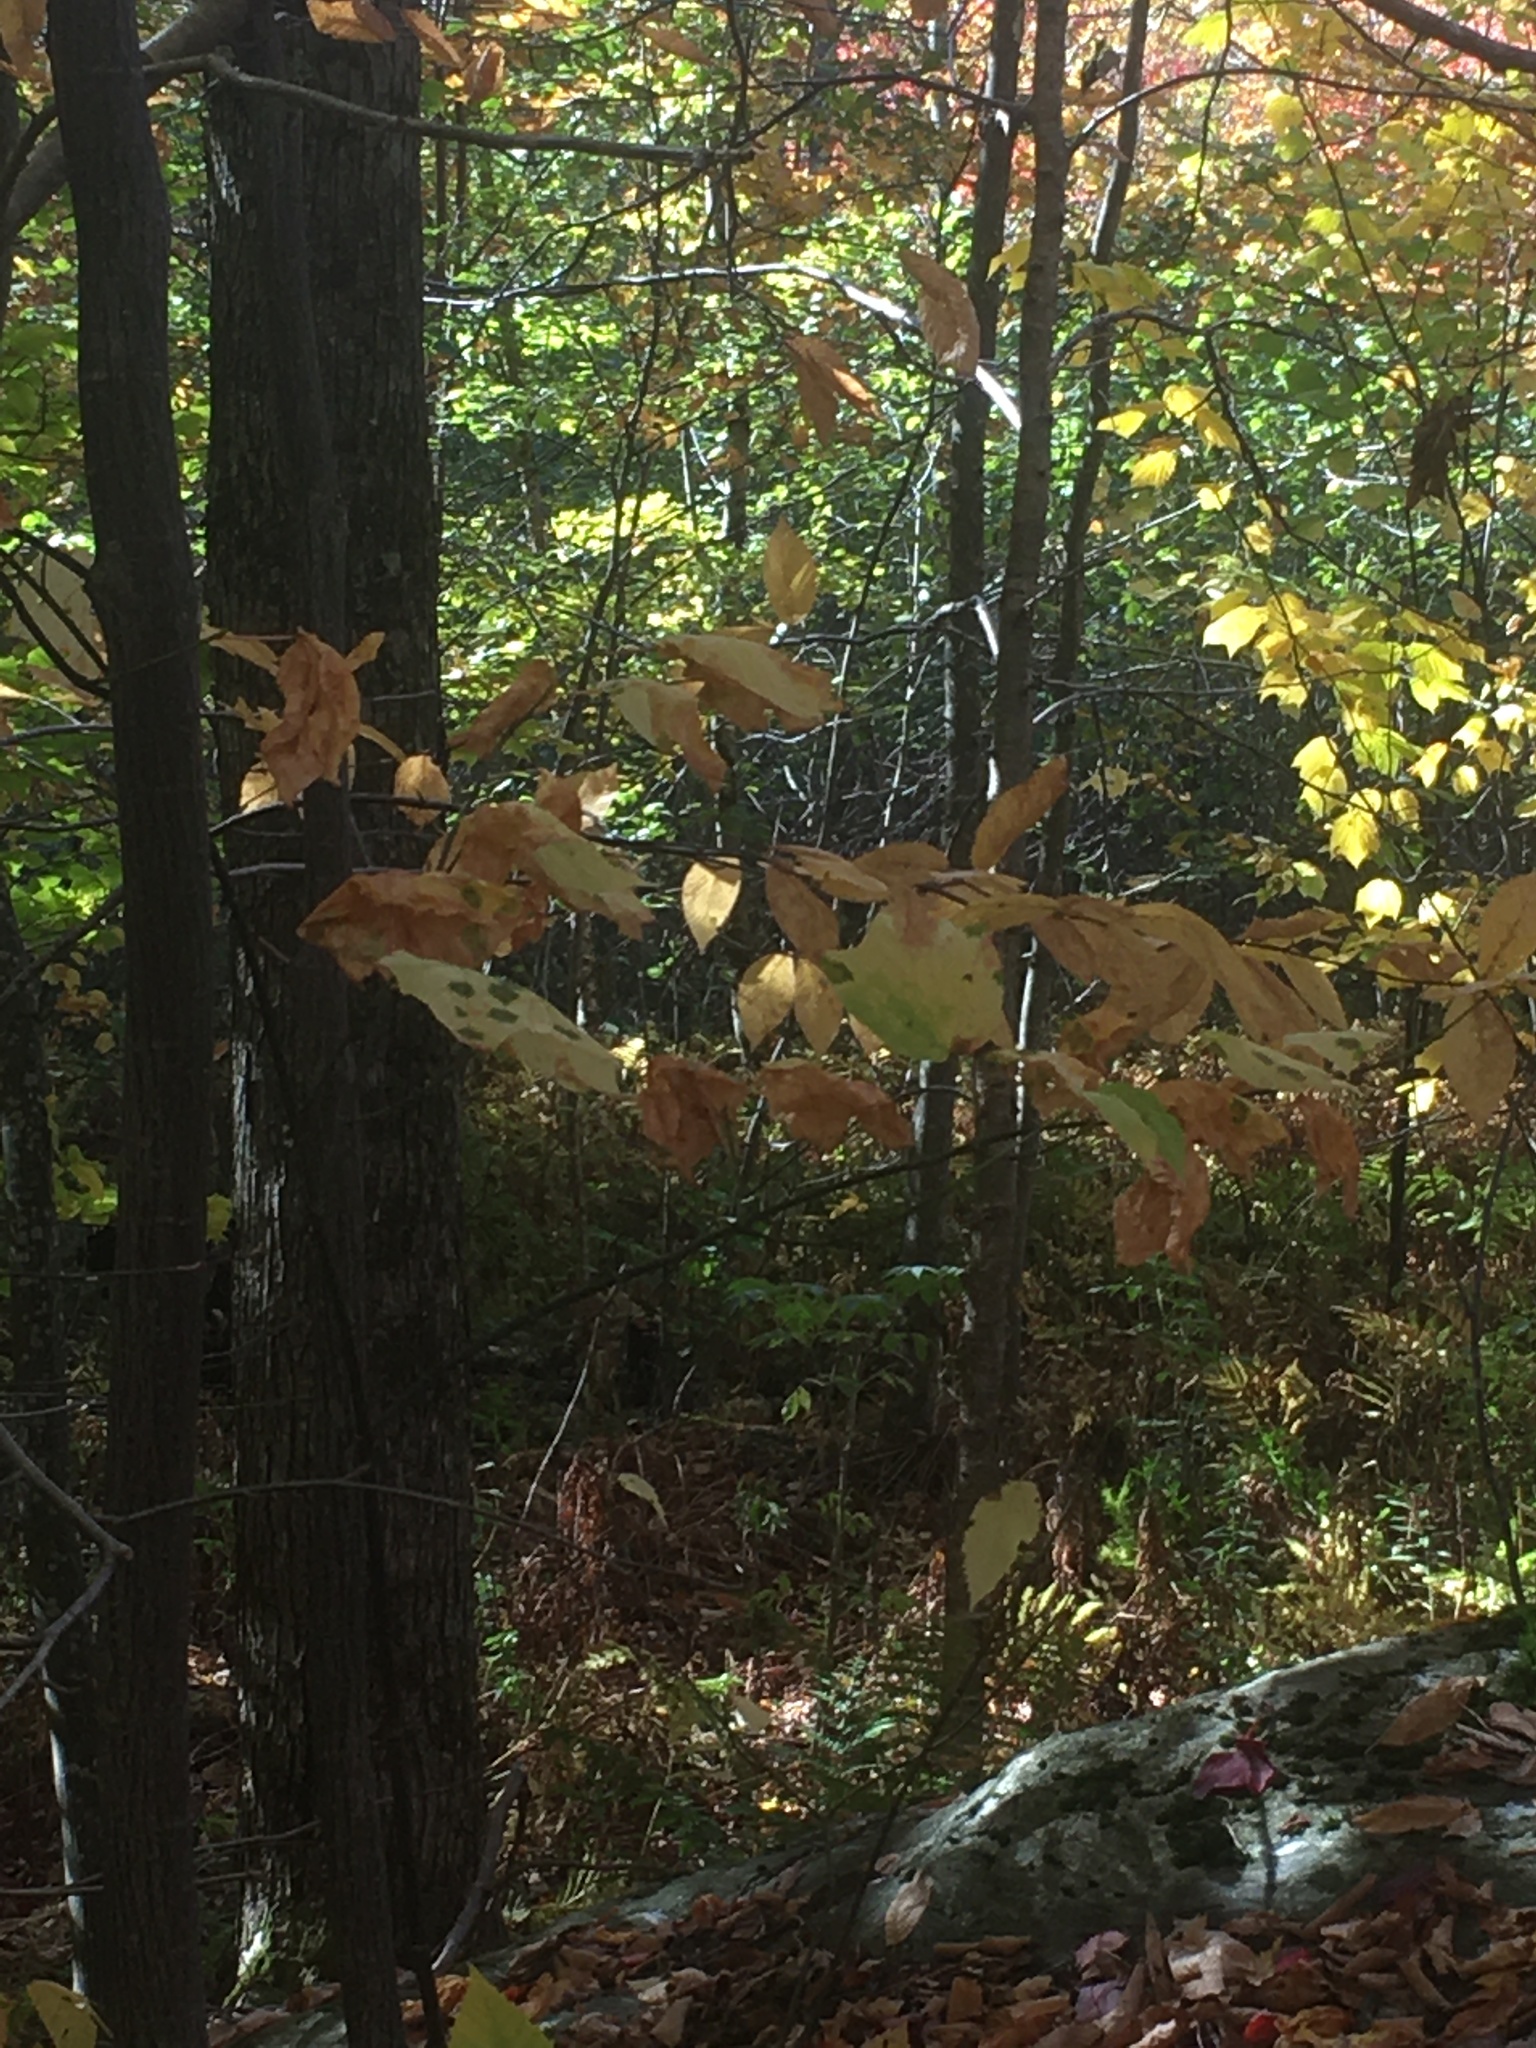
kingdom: Plantae
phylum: Tracheophyta
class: Magnoliopsida
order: Sapindales
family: Sapindaceae
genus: Acer
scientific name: Acer pensylvanicum
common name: Moosewood
